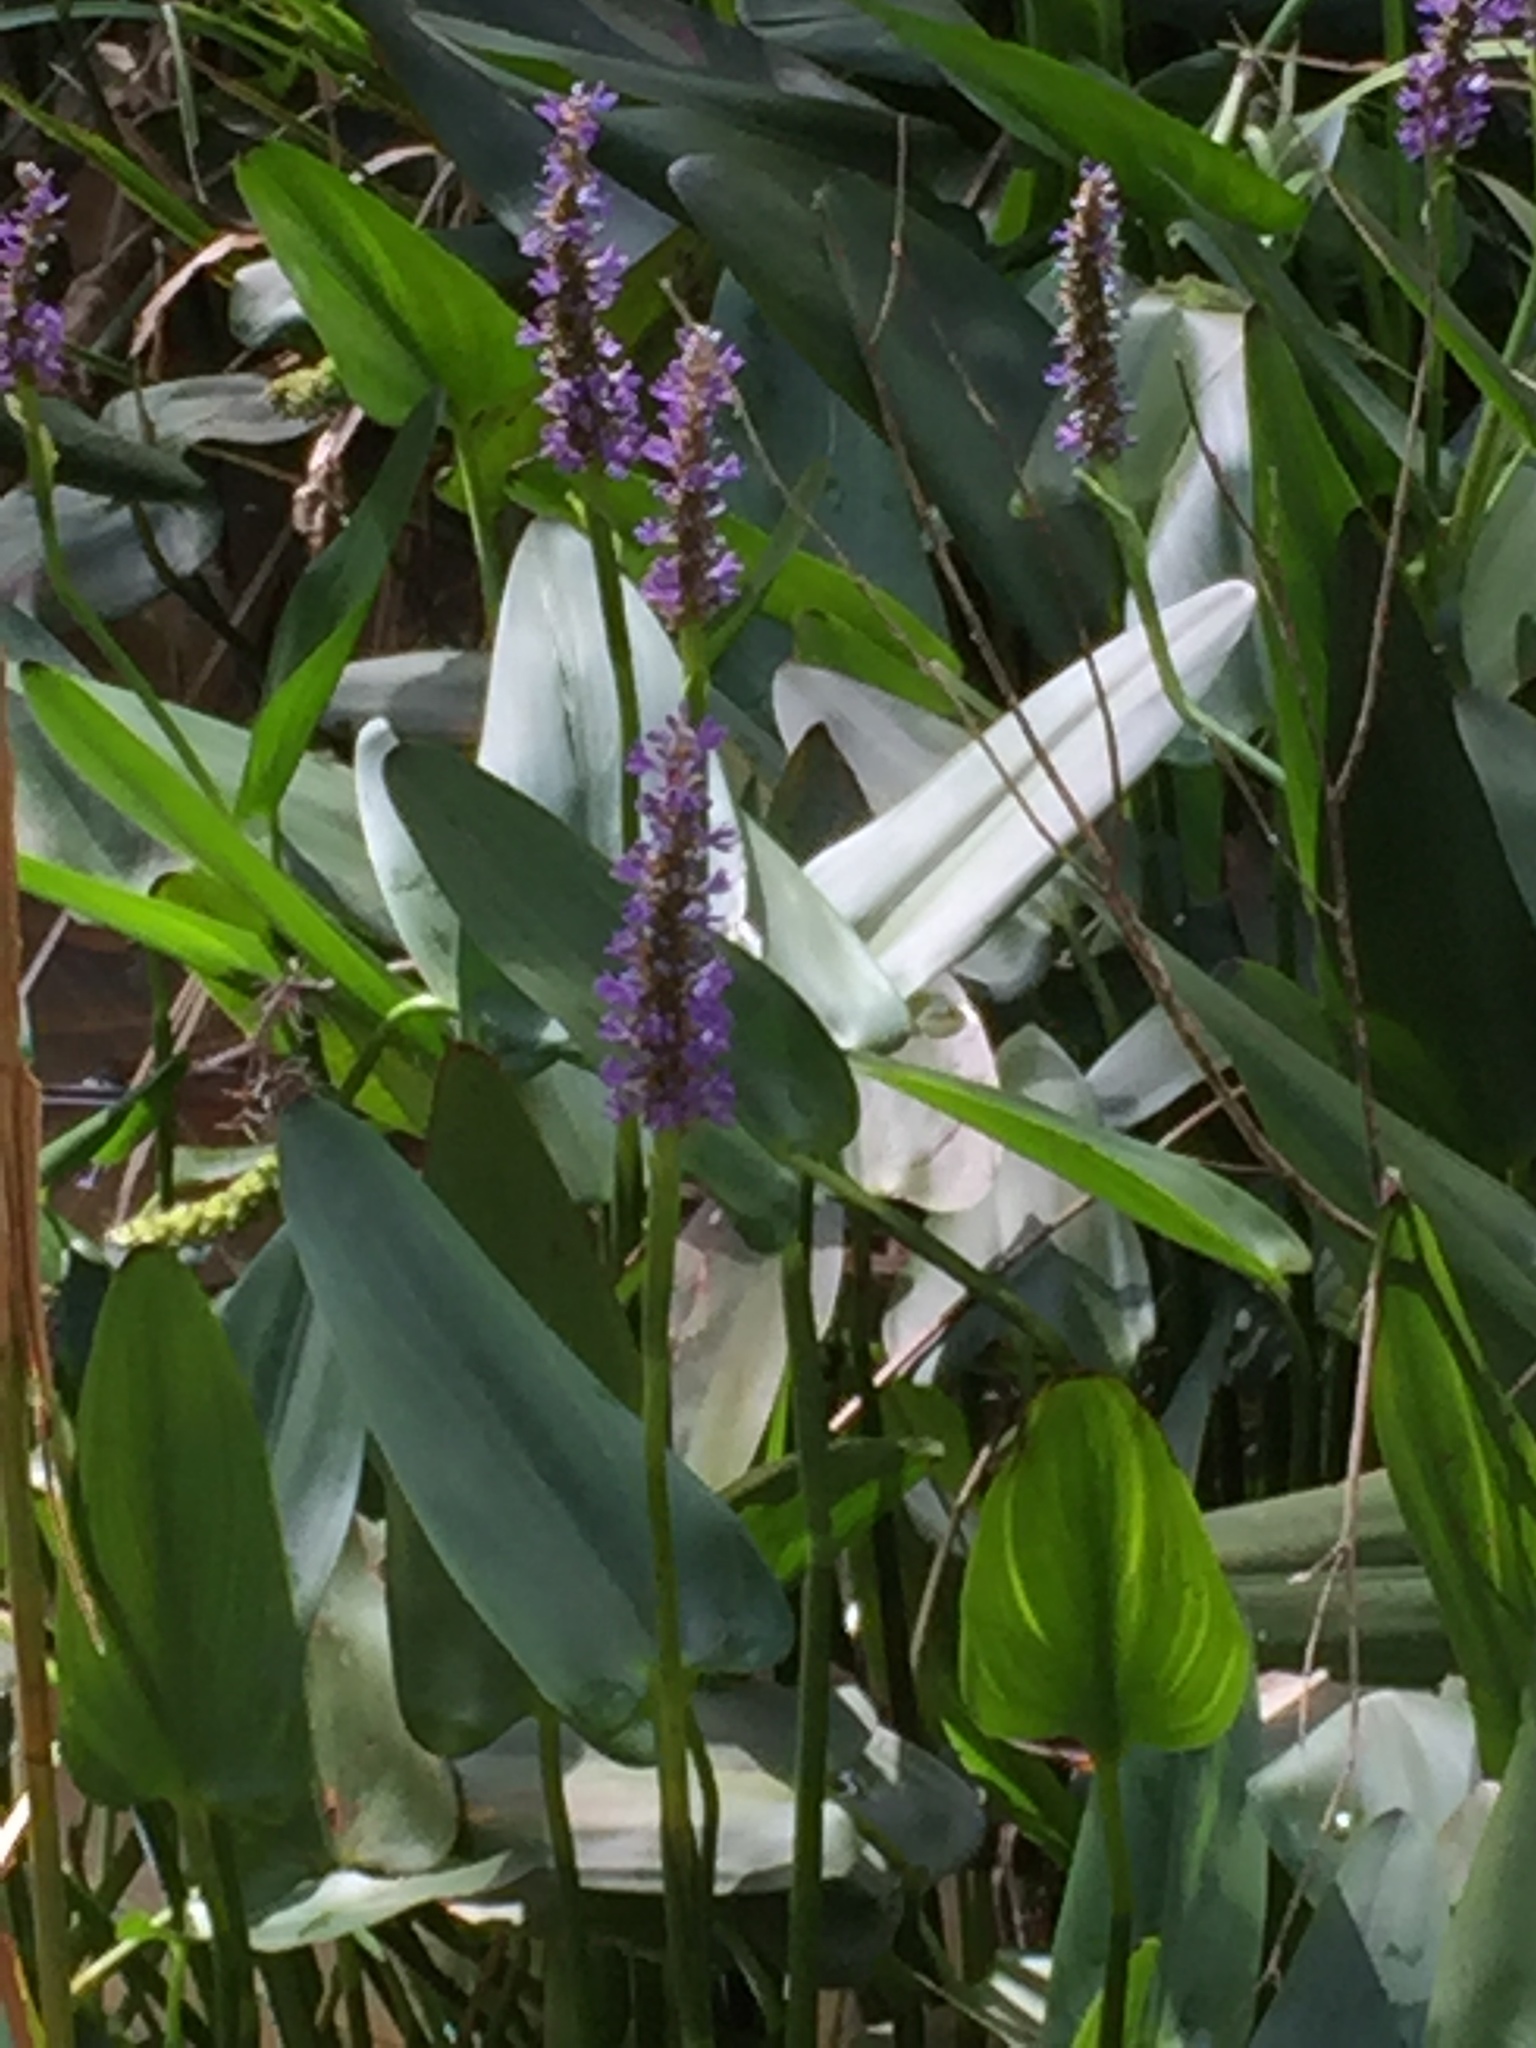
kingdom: Plantae
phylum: Tracheophyta
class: Liliopsida
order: Commelinales
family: Pontederiaceae
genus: Pontederia
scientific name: Pontederia cordata
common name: Pickerelweed
